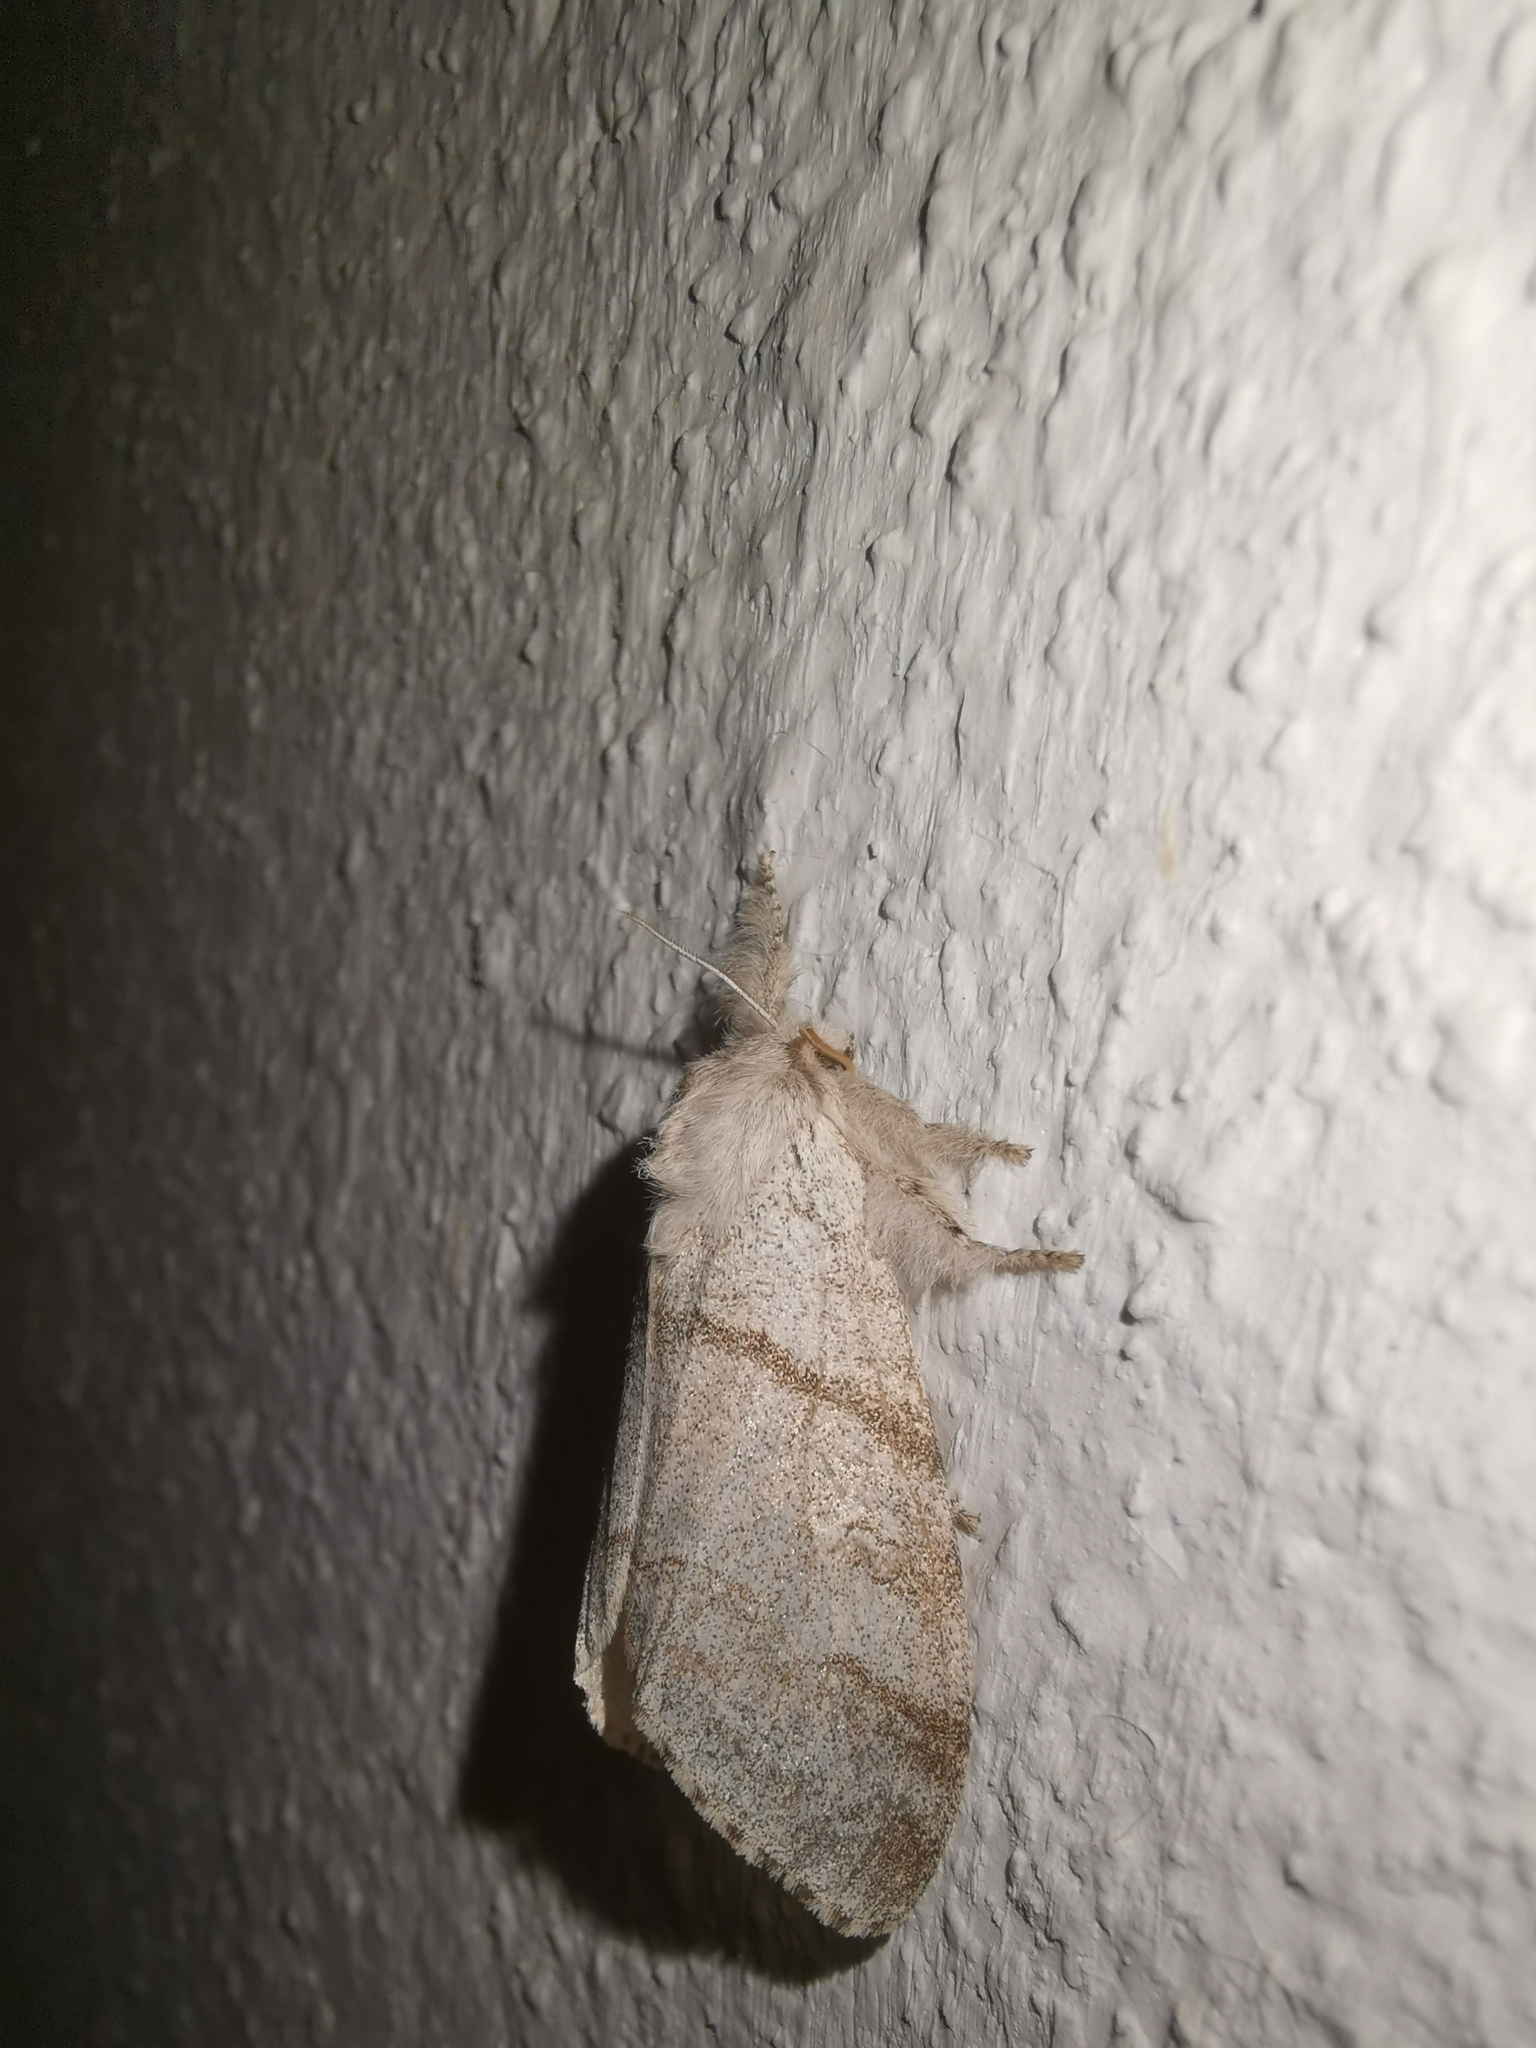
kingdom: Animalia
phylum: Arthropoda
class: Insecta
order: Lepidoptera
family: Erebidae
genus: Calliteara
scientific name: Calliteara pudibunda
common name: Pale tussock
